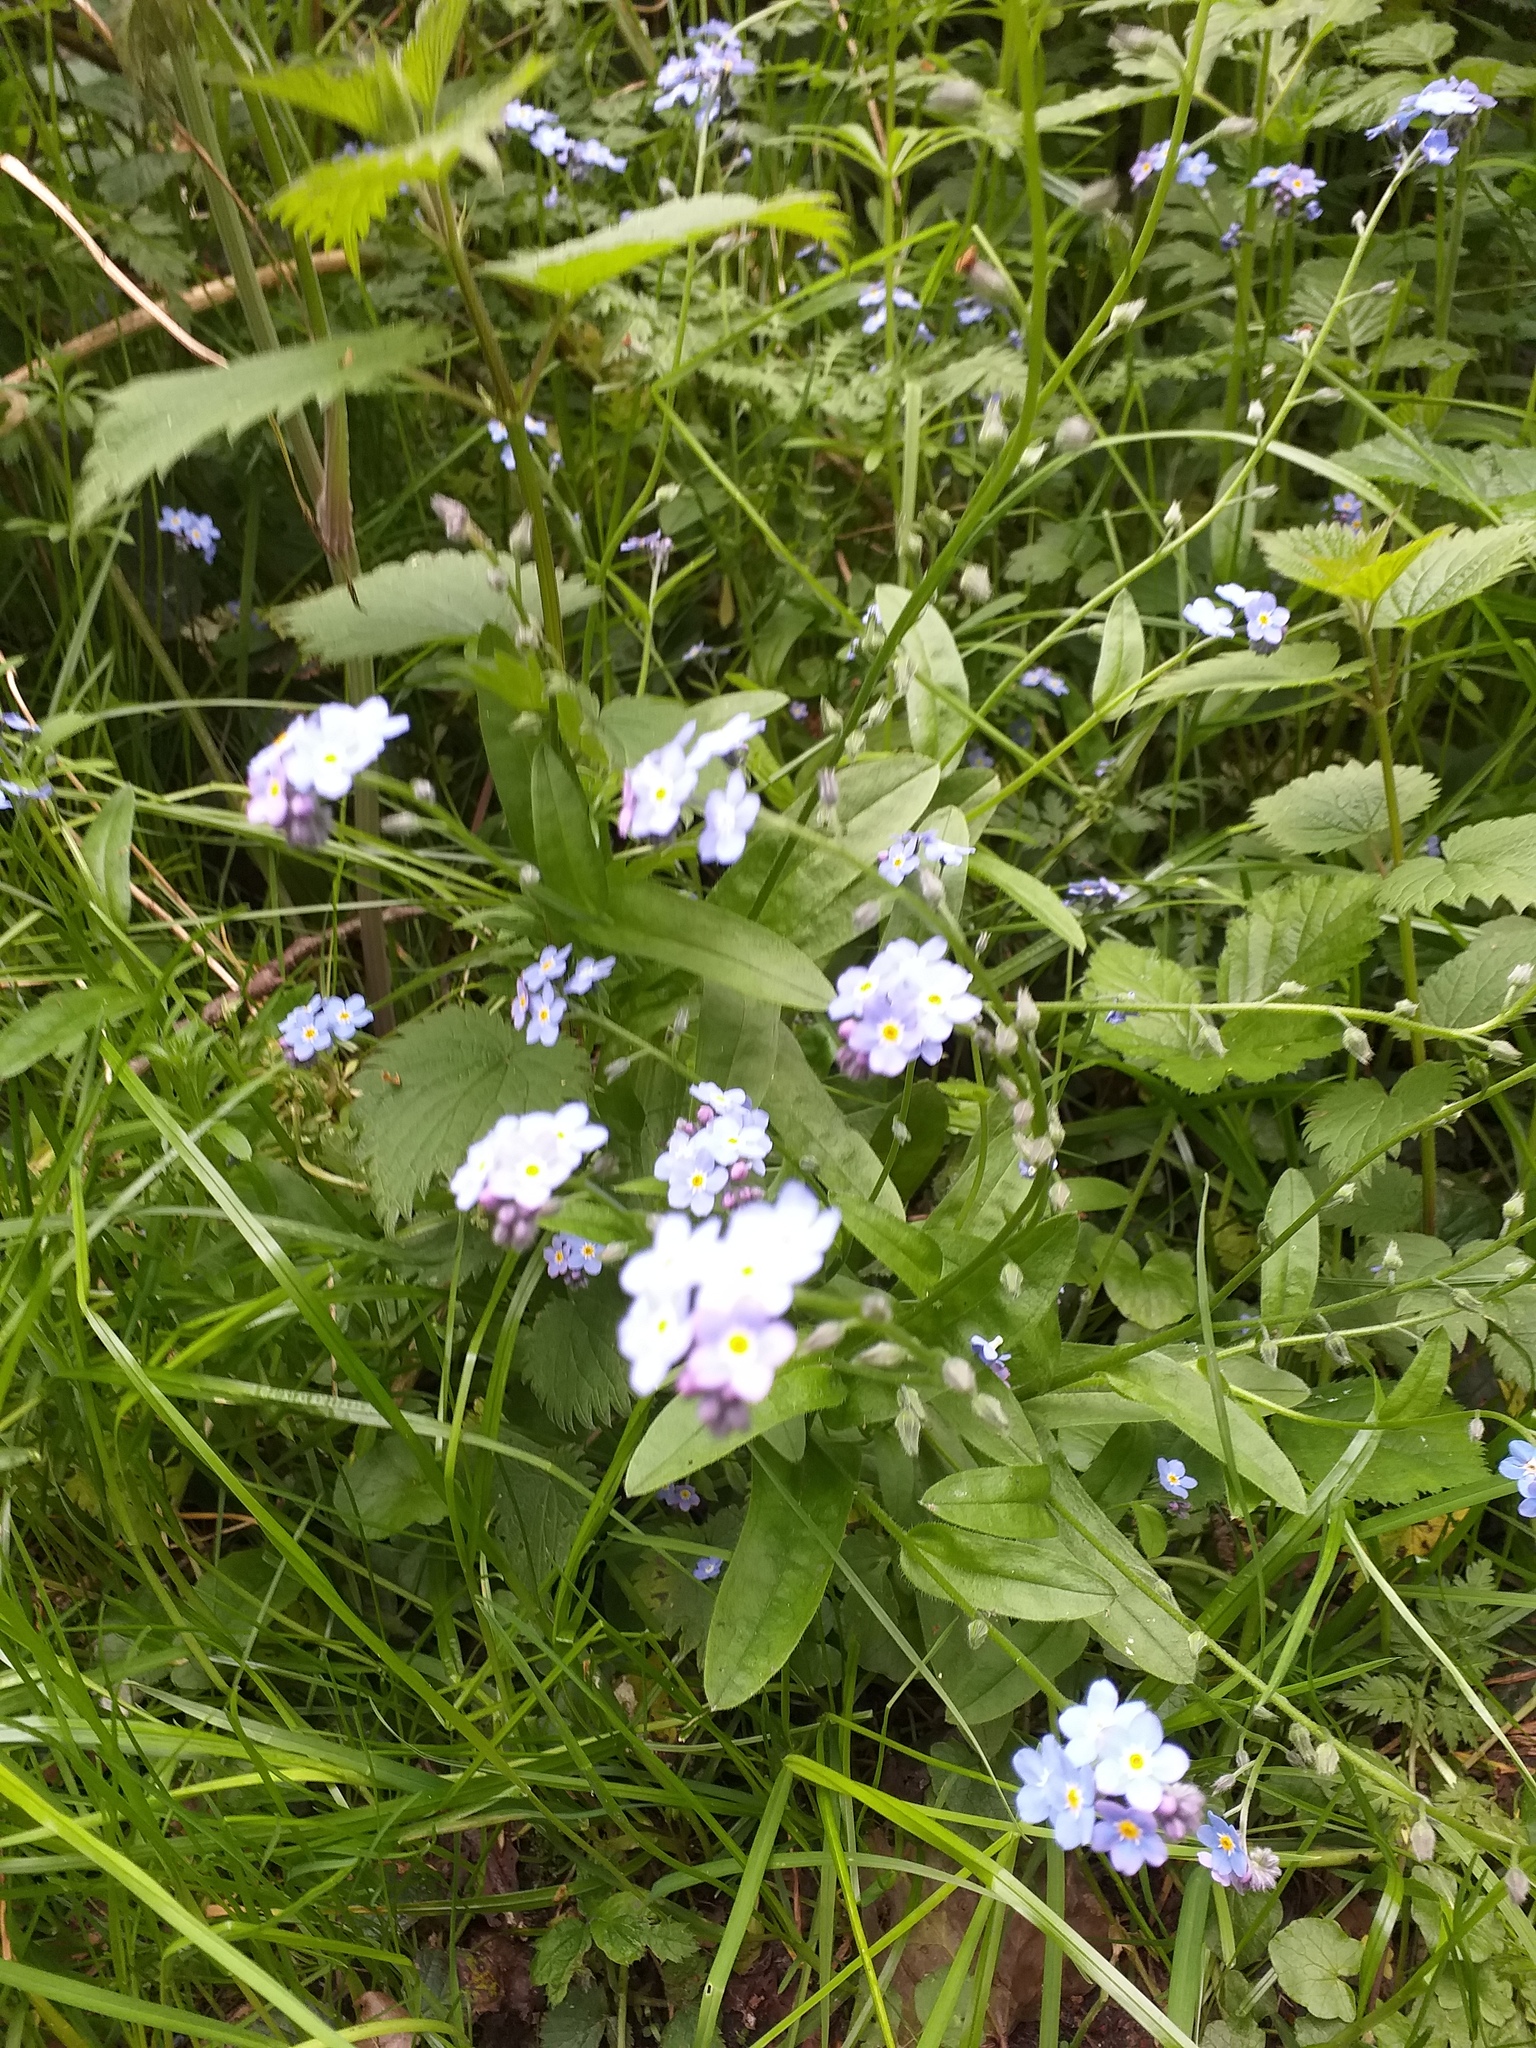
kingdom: Plantae
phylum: Tracheophyta
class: Magnoliopsida
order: Boraginales
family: Boraginaceae
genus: Myosotis
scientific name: Myosotis sylvatica
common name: Wood forget-me-not
